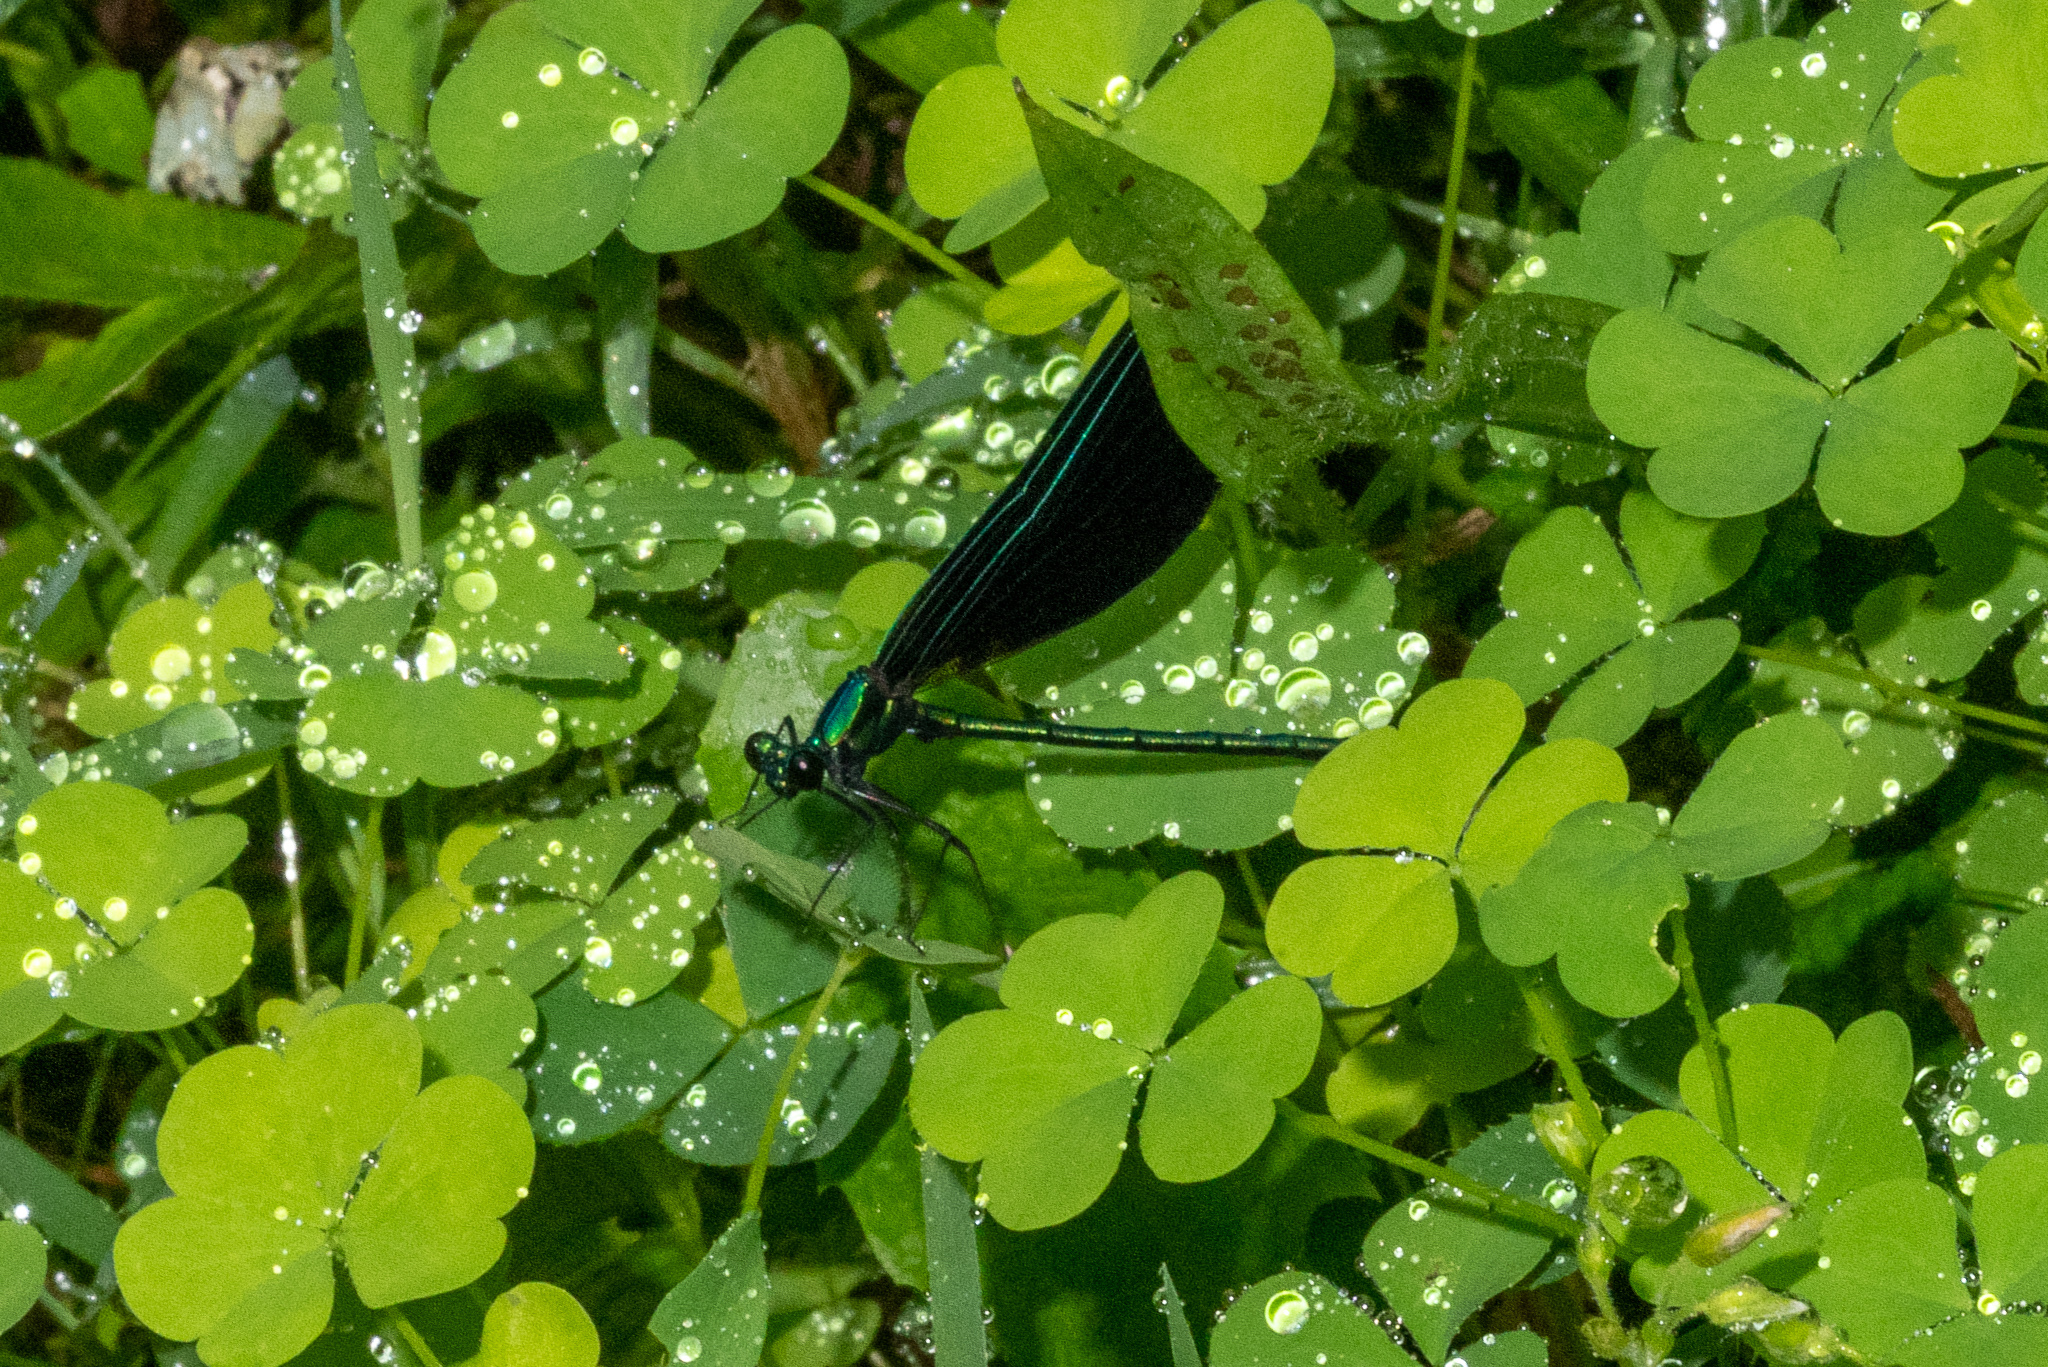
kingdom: Animalia
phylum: Arthropoda
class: Insecta
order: Odonata
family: Calopterygidae
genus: Calopteryx
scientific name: Calopteryx maculata
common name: Ebony jewelwing
